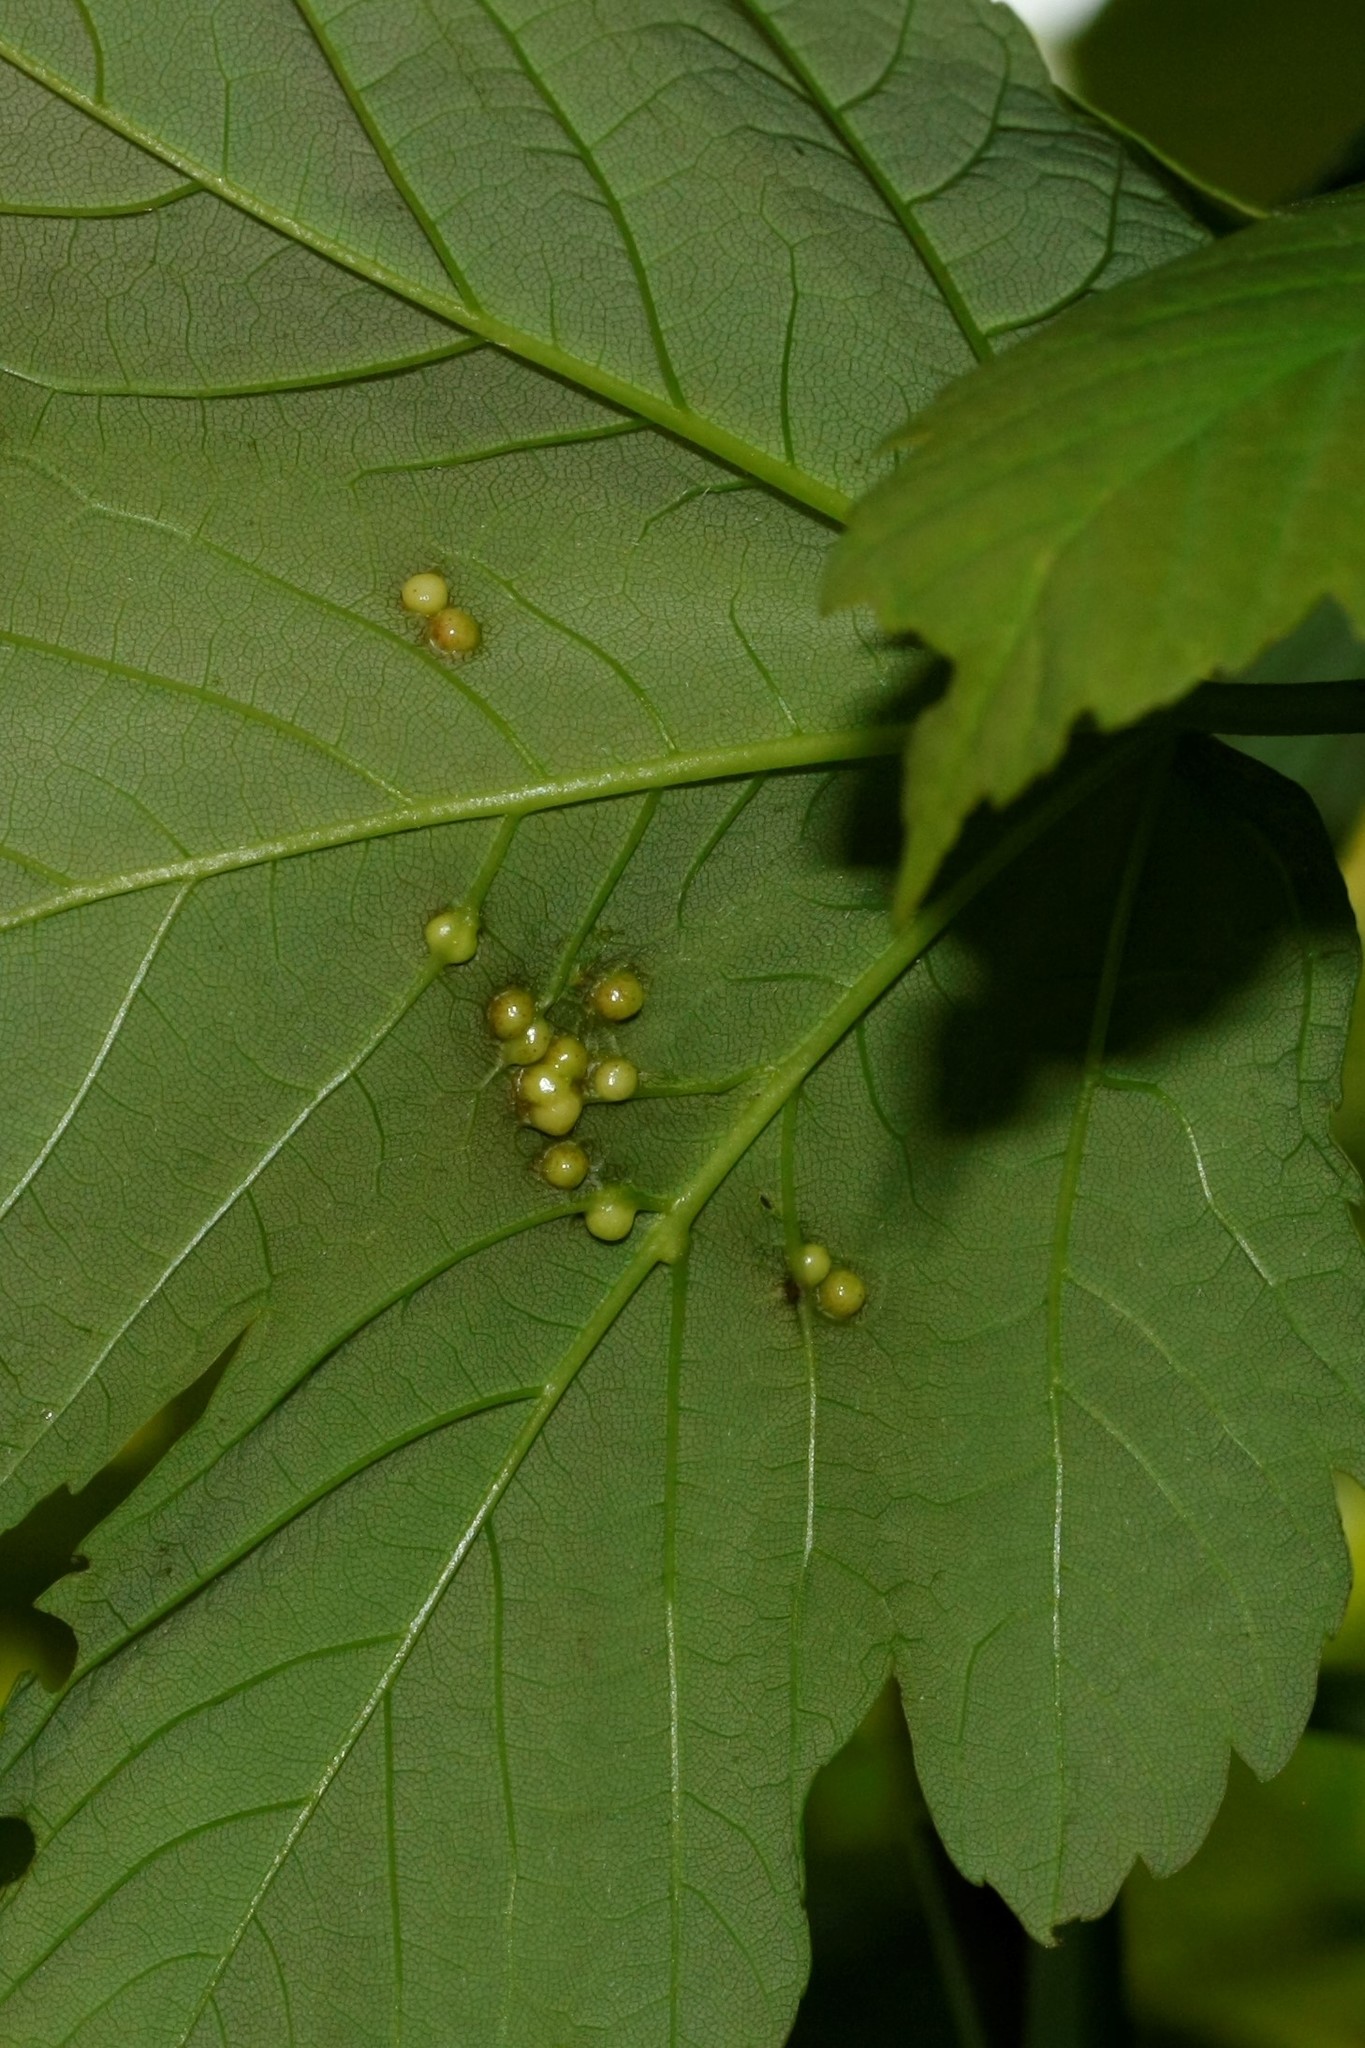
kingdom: Animalia
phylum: Arthropoda
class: Insecta
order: Hymenoptera
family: Cynipidae
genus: Pediaspis
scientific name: Pediaspis aceris
